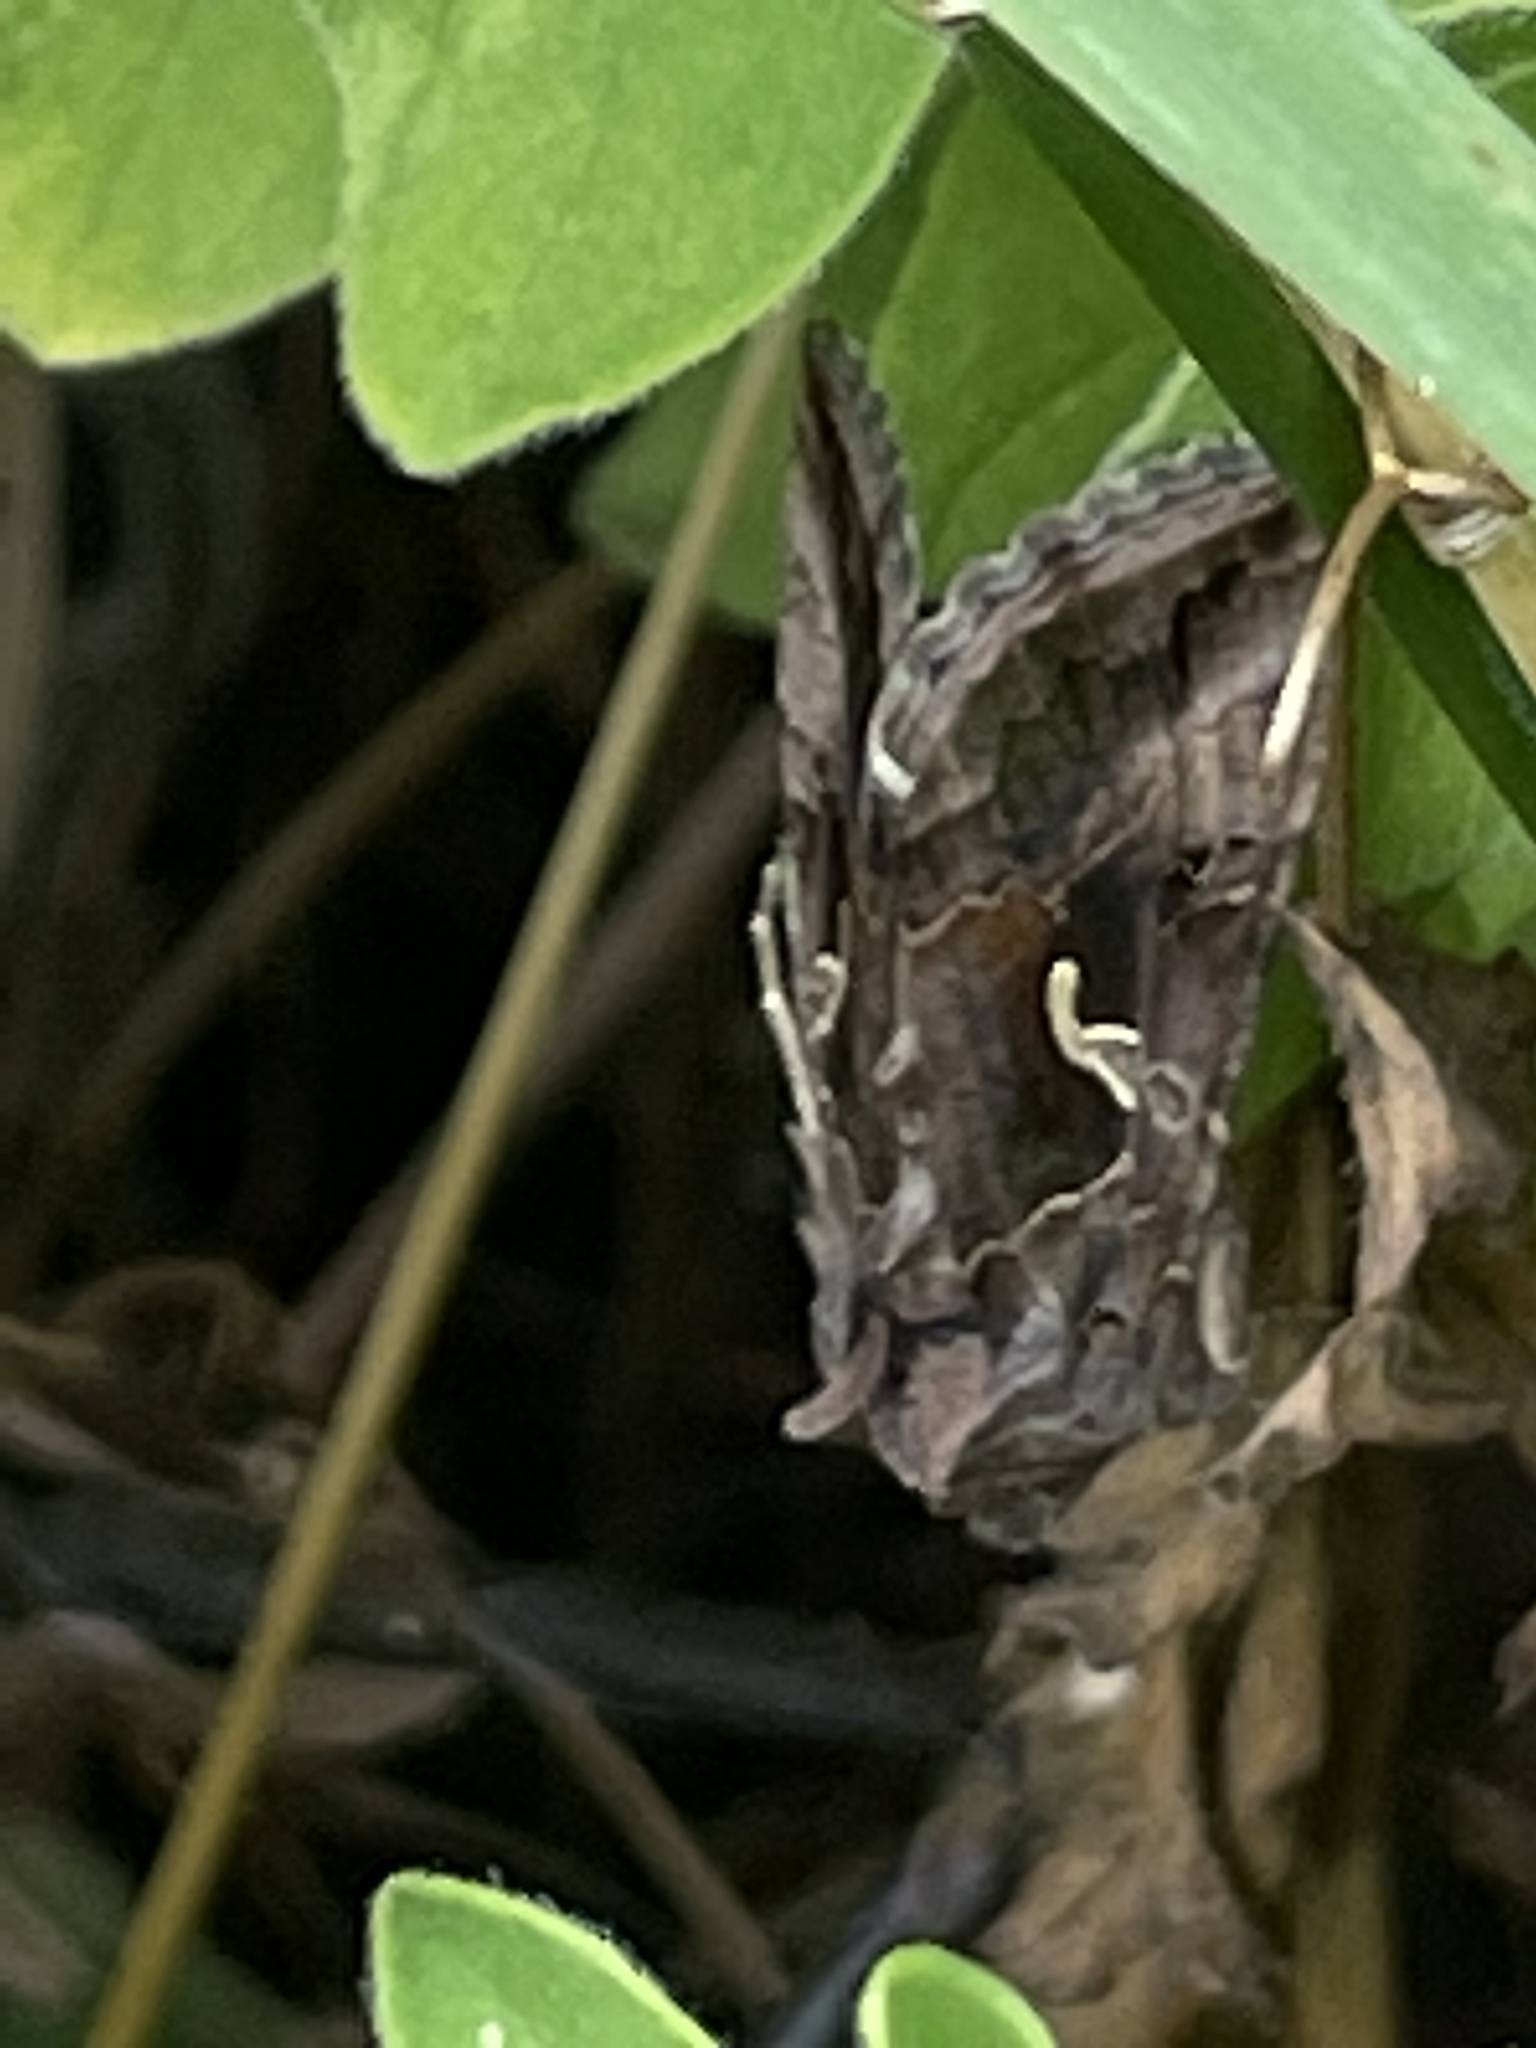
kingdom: Animalia
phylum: Arthropoda
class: Insecta
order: Lepidoptera
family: Noctuidae
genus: Autographa
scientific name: Autographa gamma
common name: Silver y
